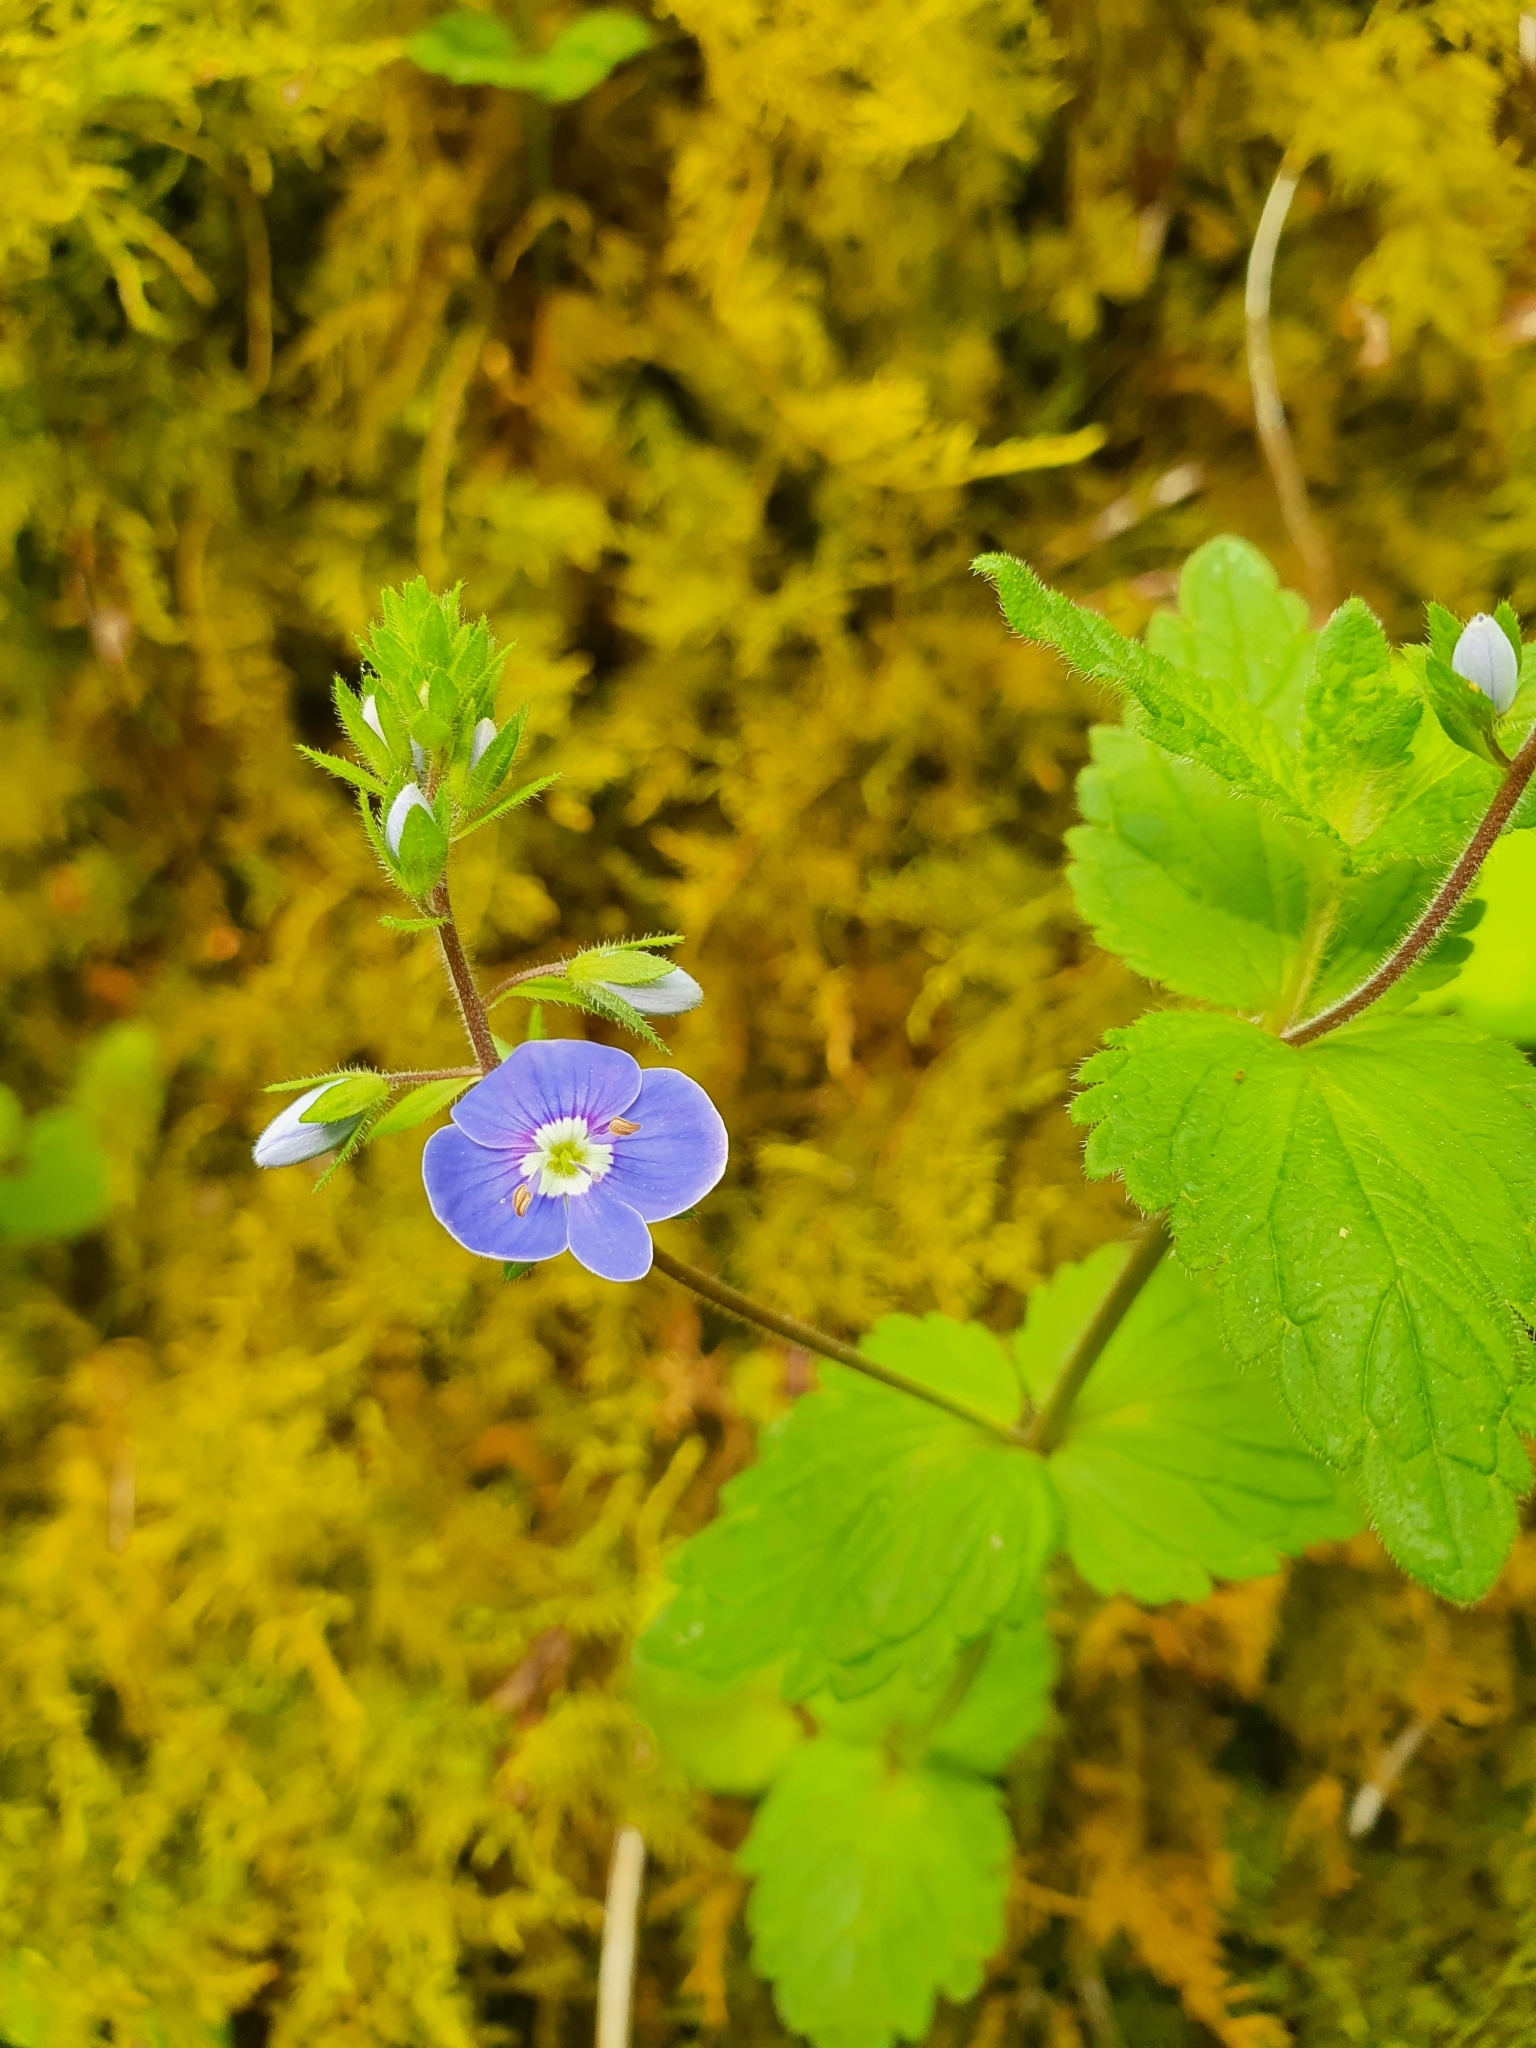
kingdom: Plantae
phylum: Tracheophyta
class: Magnoliopsida
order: Lamiales
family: Plantaginaceae
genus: Veronica
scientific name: Veronica chamaedrys
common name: Germander speedwell
